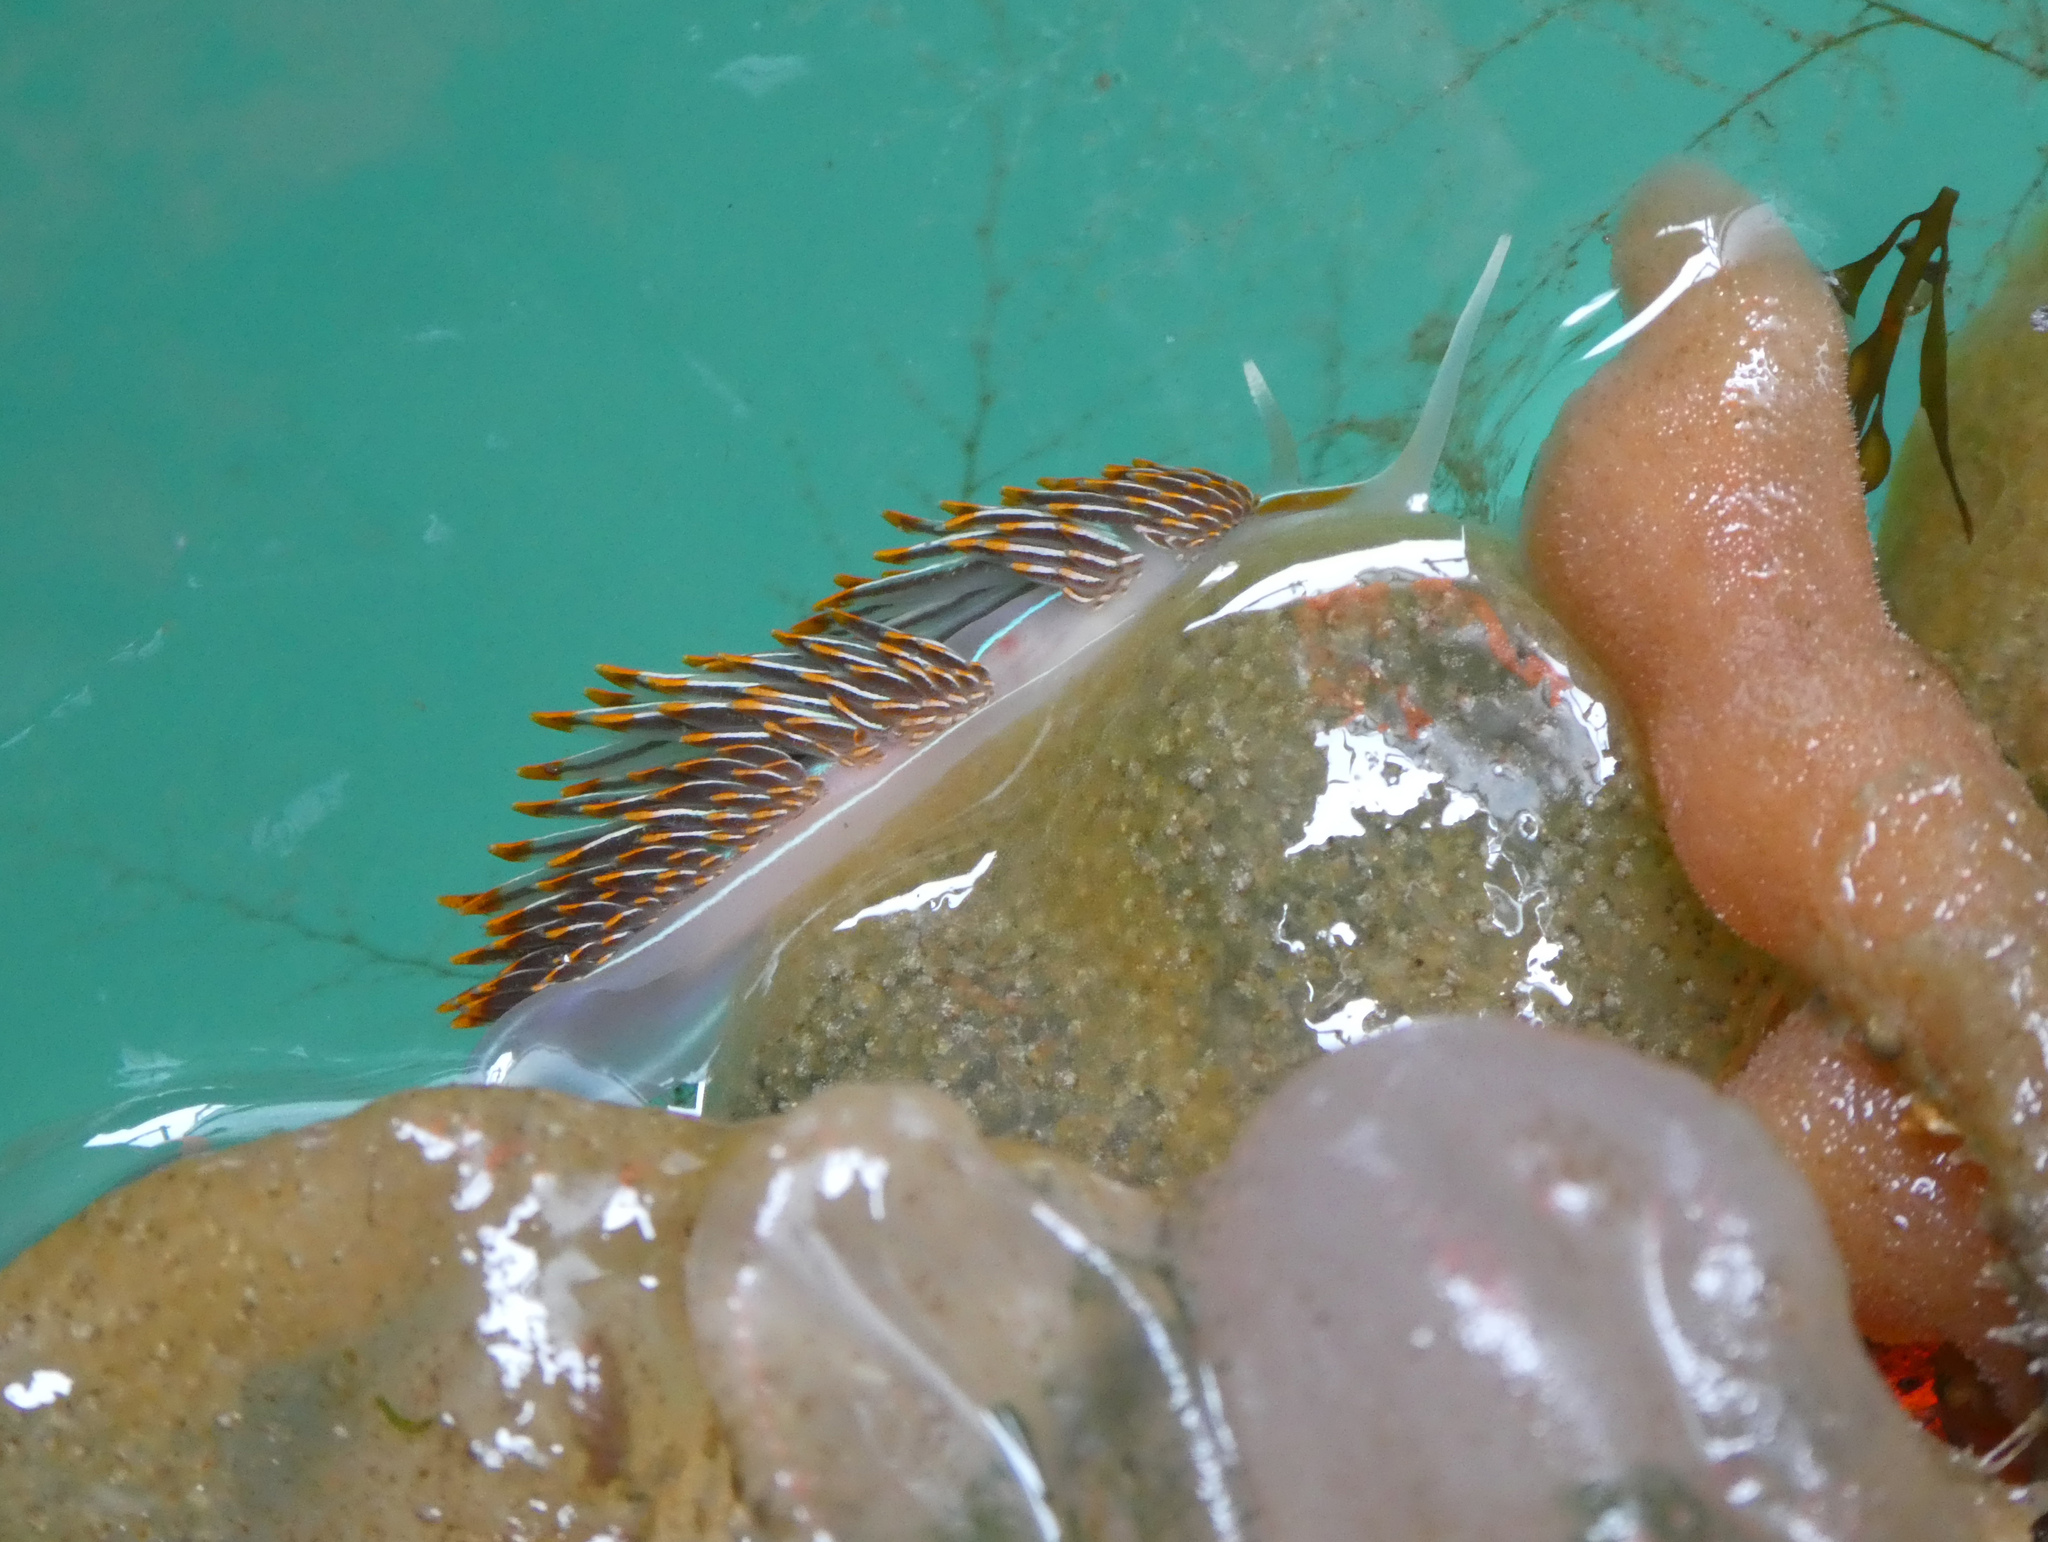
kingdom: Animalia
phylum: Mollusca
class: Gastropoda
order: Nudibranchia
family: Myrrhinidae
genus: Hermissenda
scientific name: Hermissenda crassicornis
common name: Hermissenda
